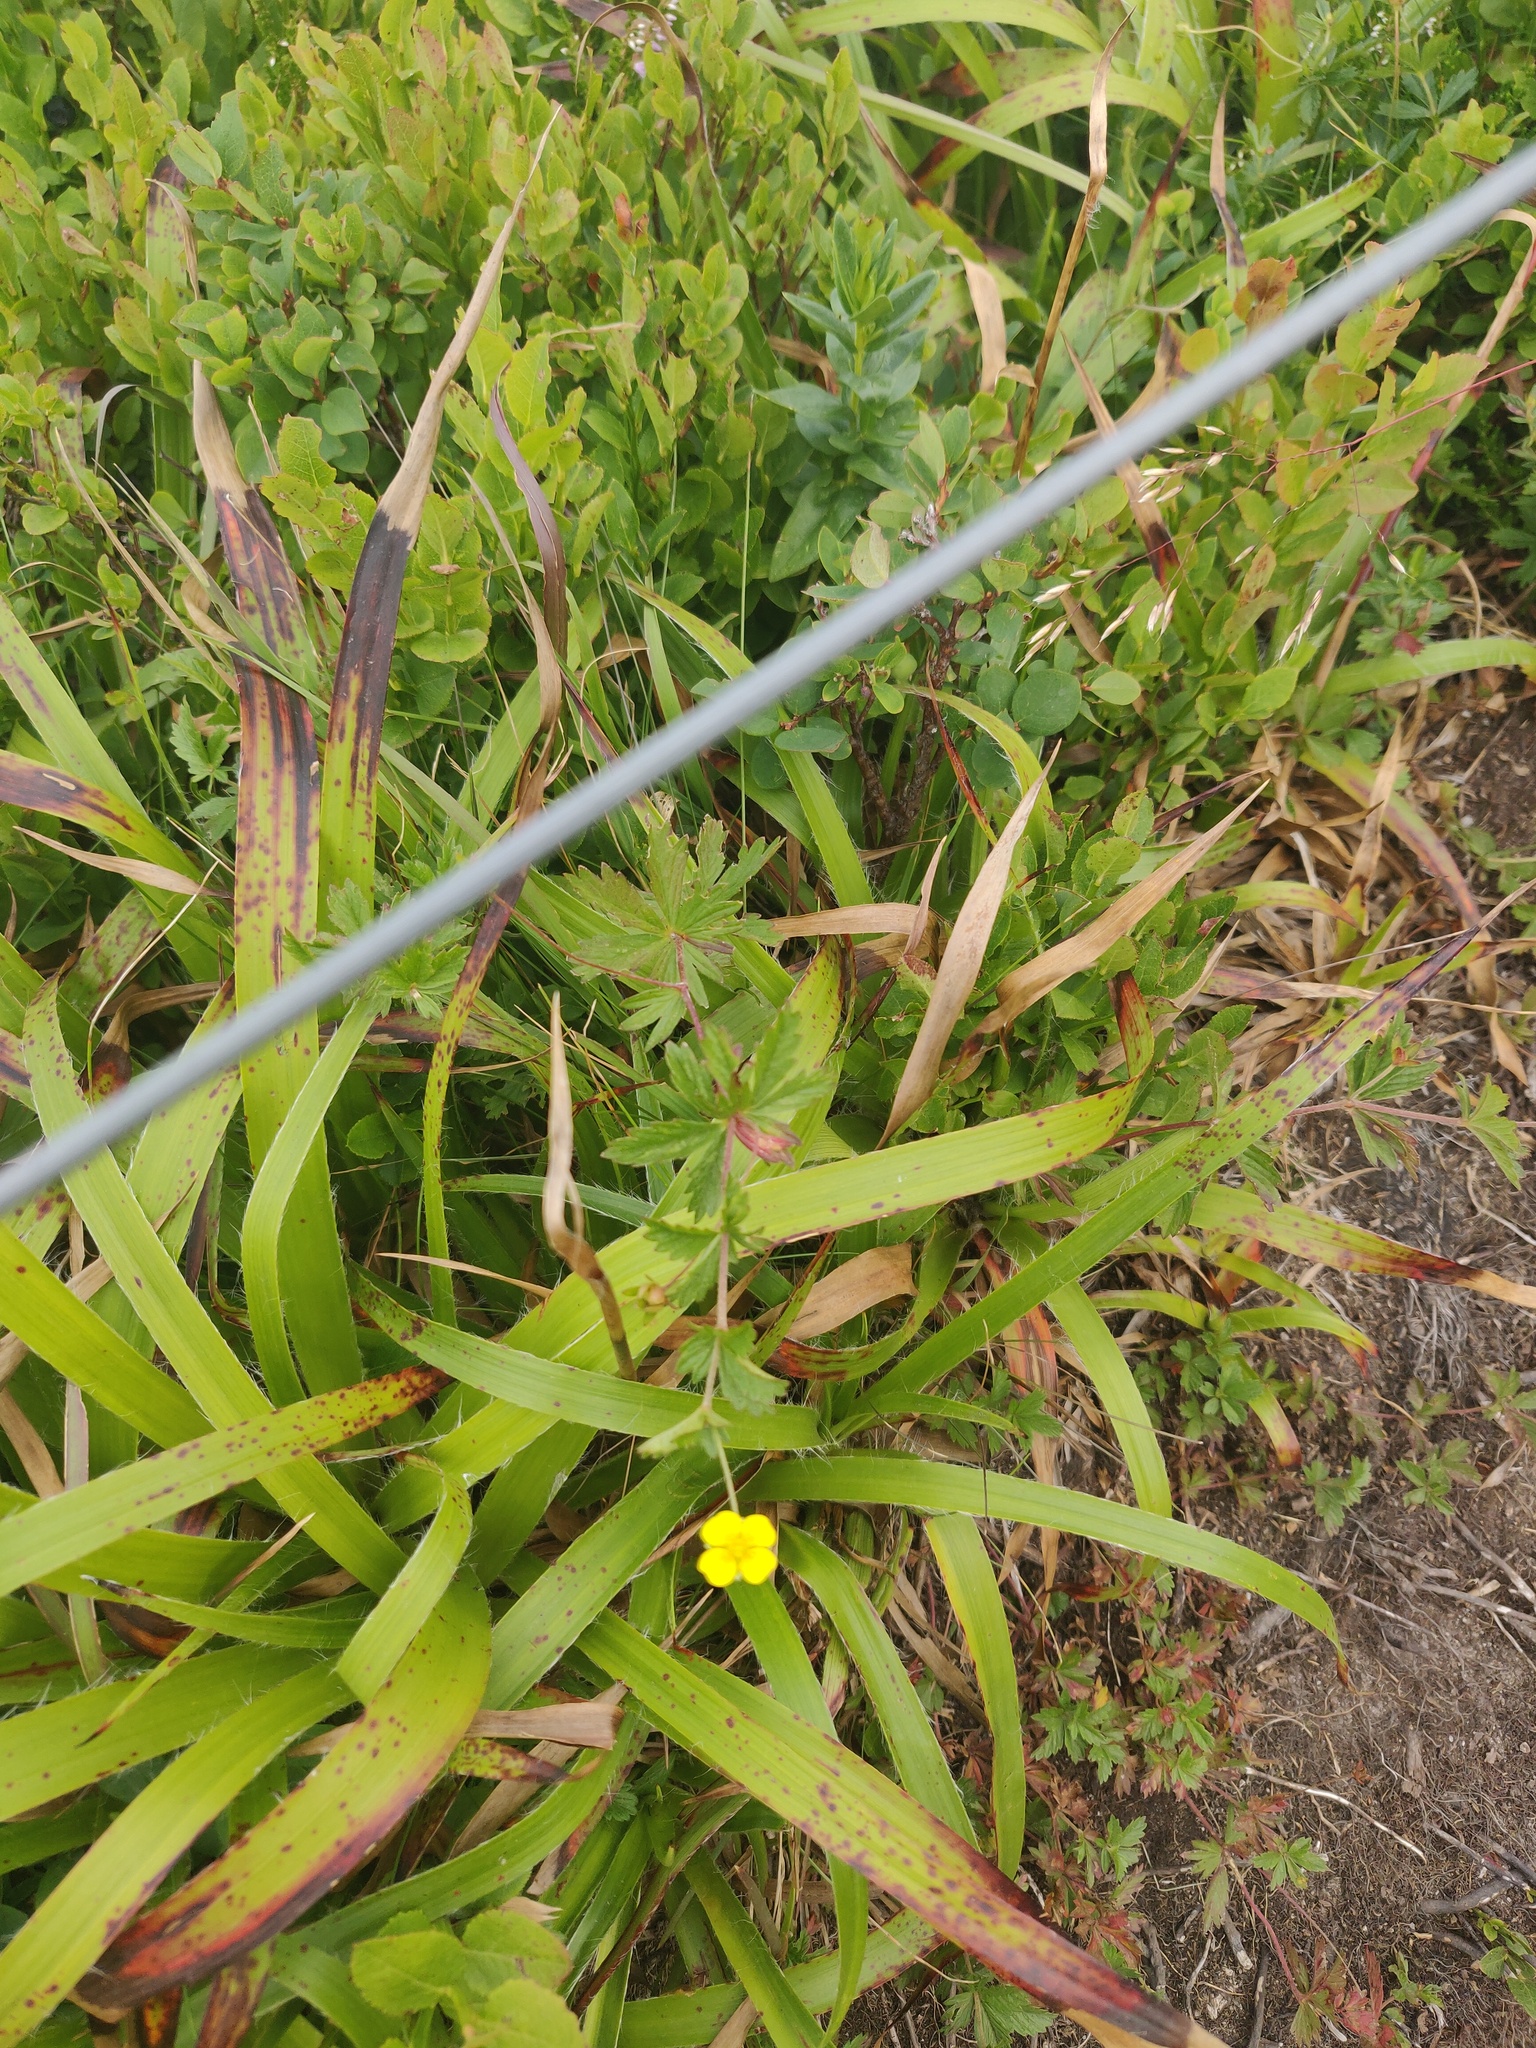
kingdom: Plantae
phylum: Tracheophyta
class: Magnoliopsida
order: Rosales
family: Rosaceae
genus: Potentilla
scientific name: Potentilla erecta
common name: Tormentil
